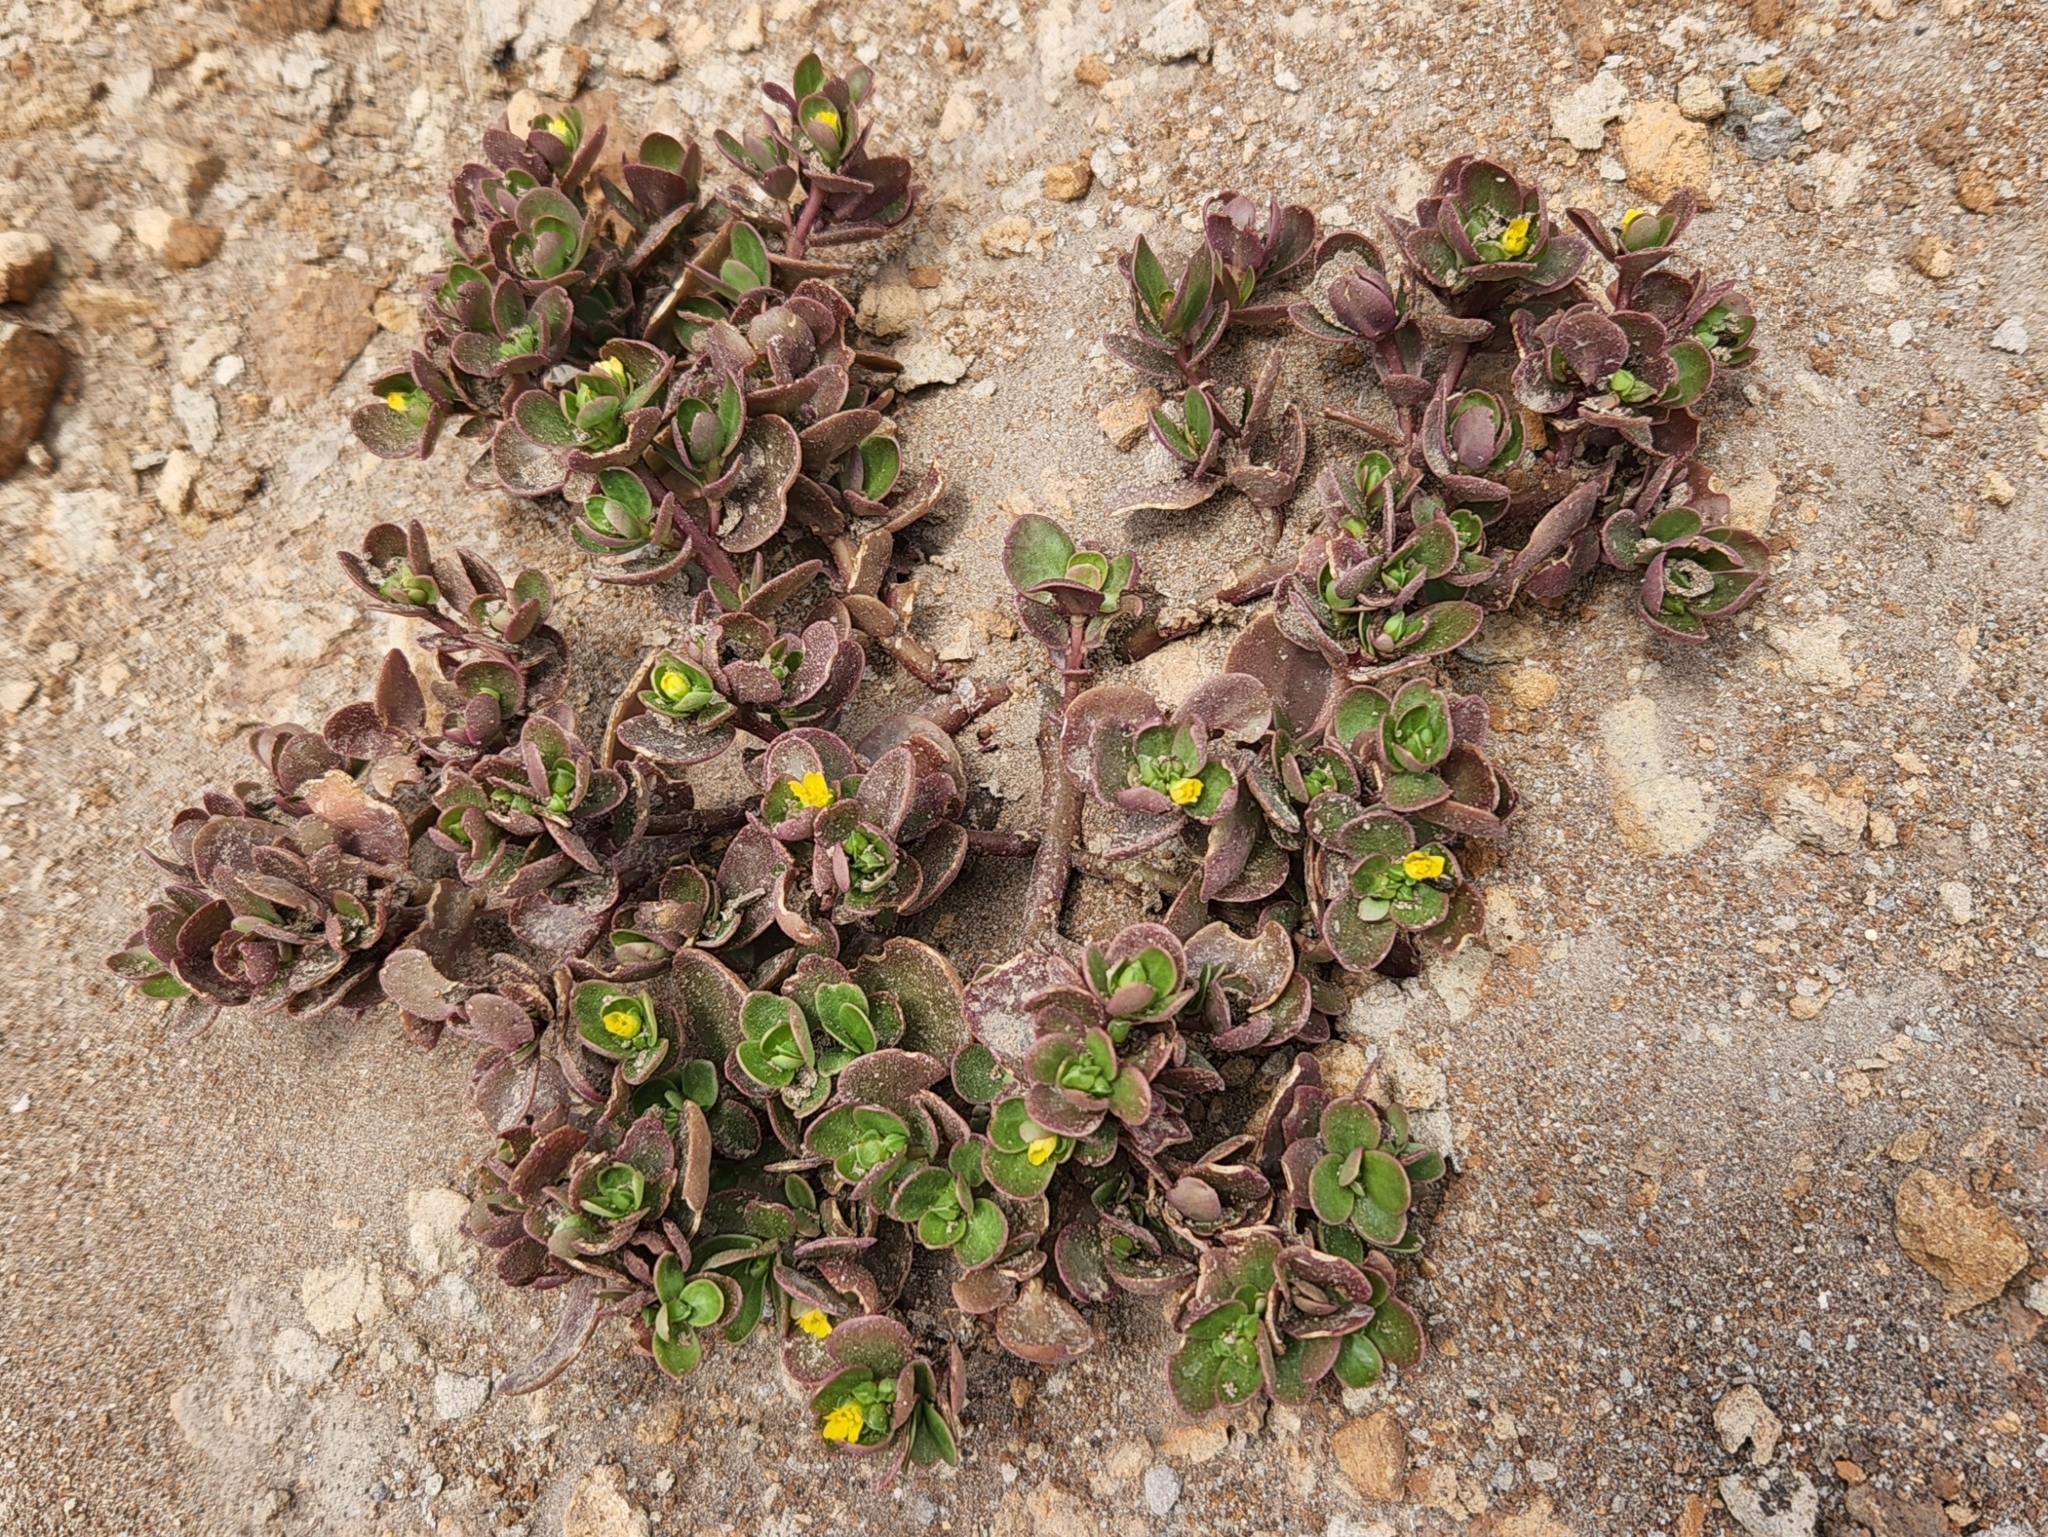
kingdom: Plantae
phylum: Tracheophyta
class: Magnoliopsida
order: Caryophyllales
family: Portulacaceae
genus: Portulaca
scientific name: Portulaca oleracea
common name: Common purslane
